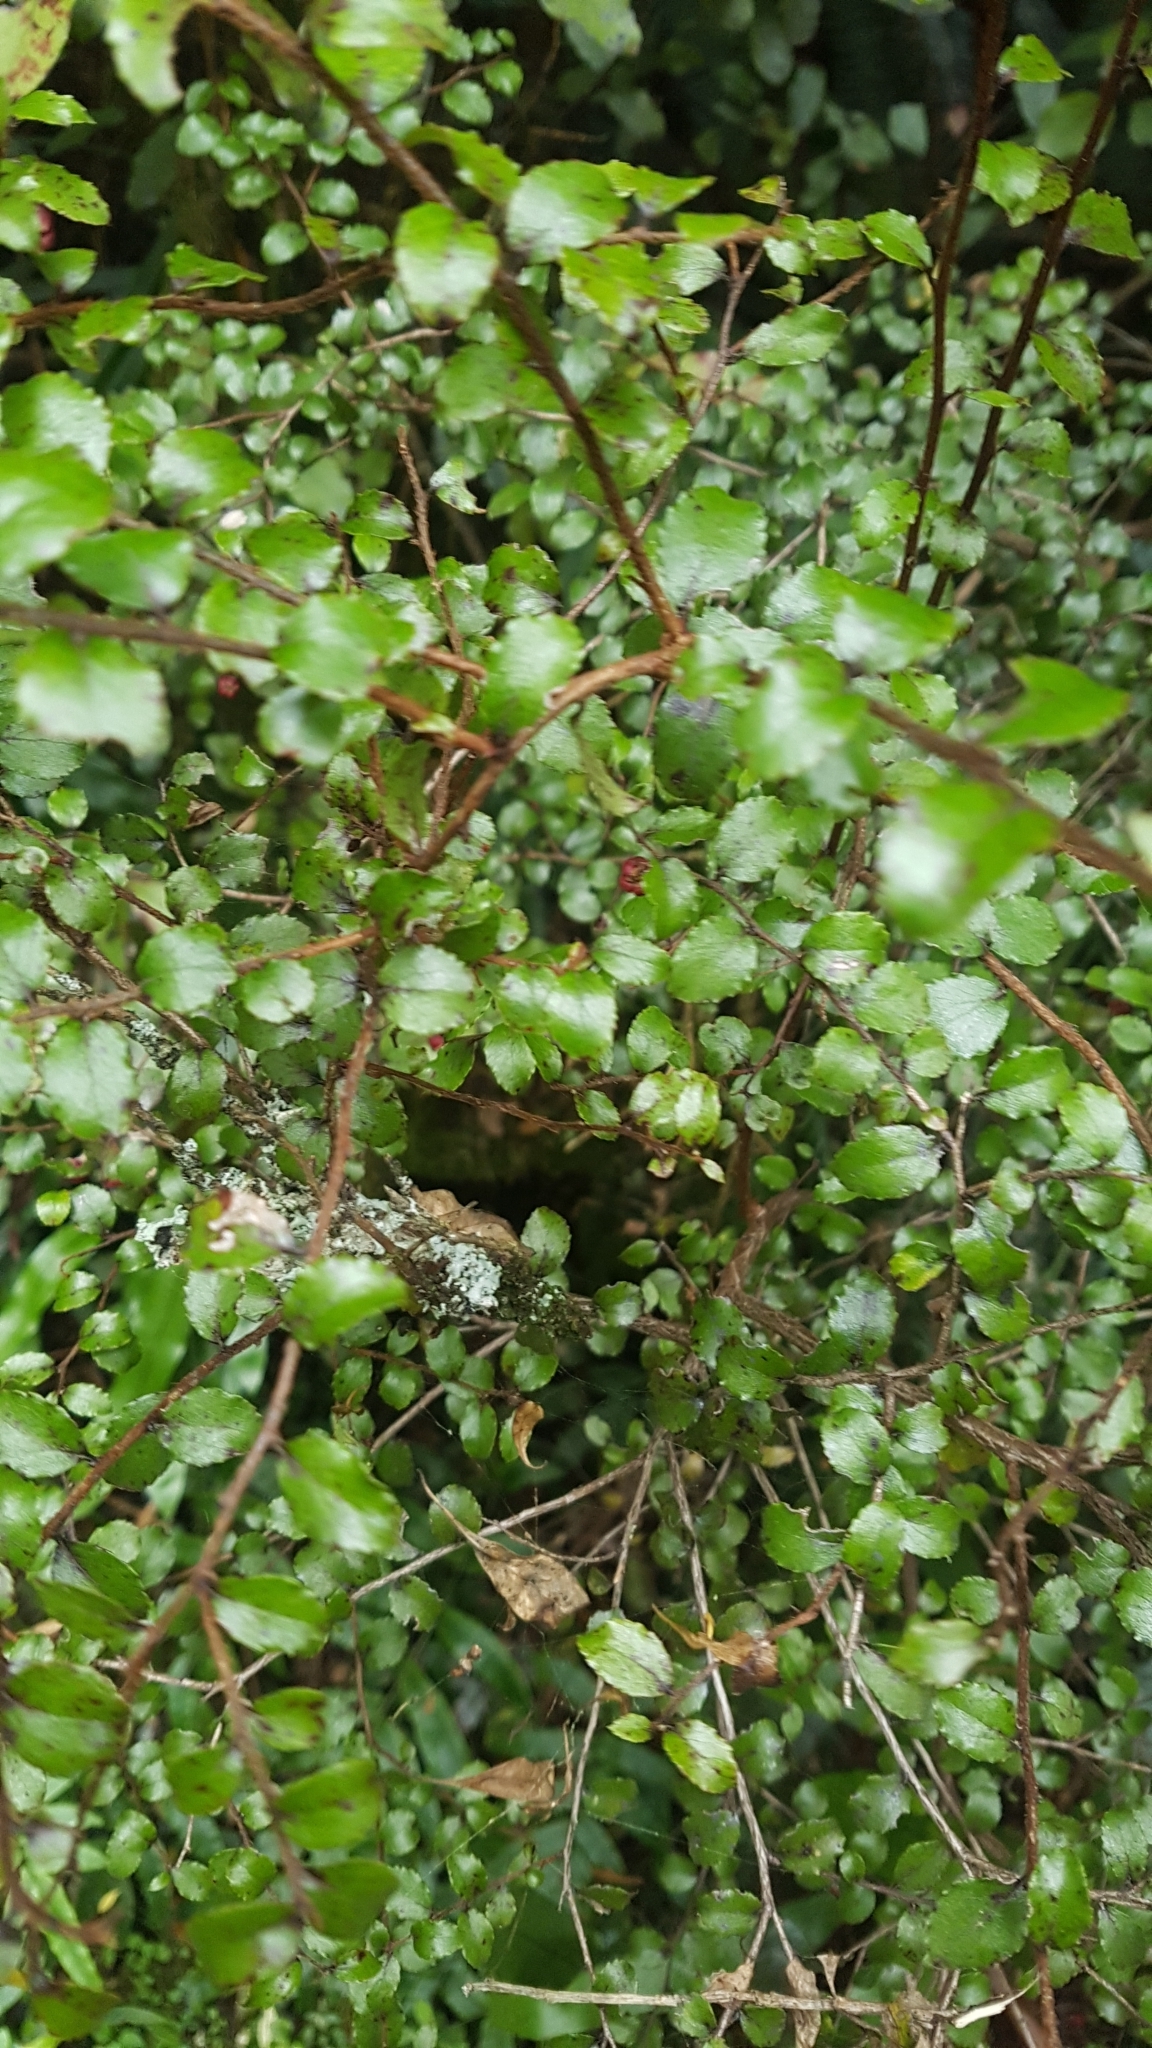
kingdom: Plantae
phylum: Tracheophyta
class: Magnoliopsida
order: Ericales
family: Ericaceae
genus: Gaultheria
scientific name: Gaultheria antipoda
